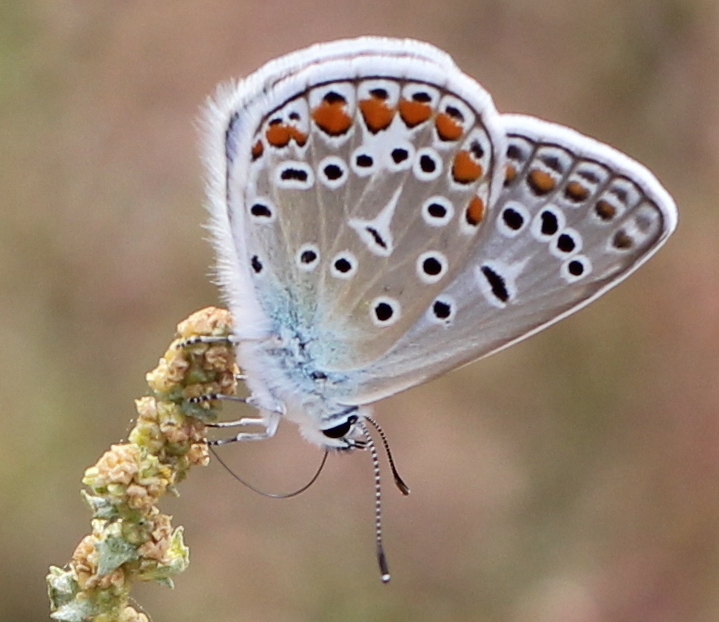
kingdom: Animalia
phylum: Arthropoda
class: Insecta
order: Lepidoptera
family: Lycaenidae
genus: Polyommatus
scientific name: Polyommatus icarus
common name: Common blue
